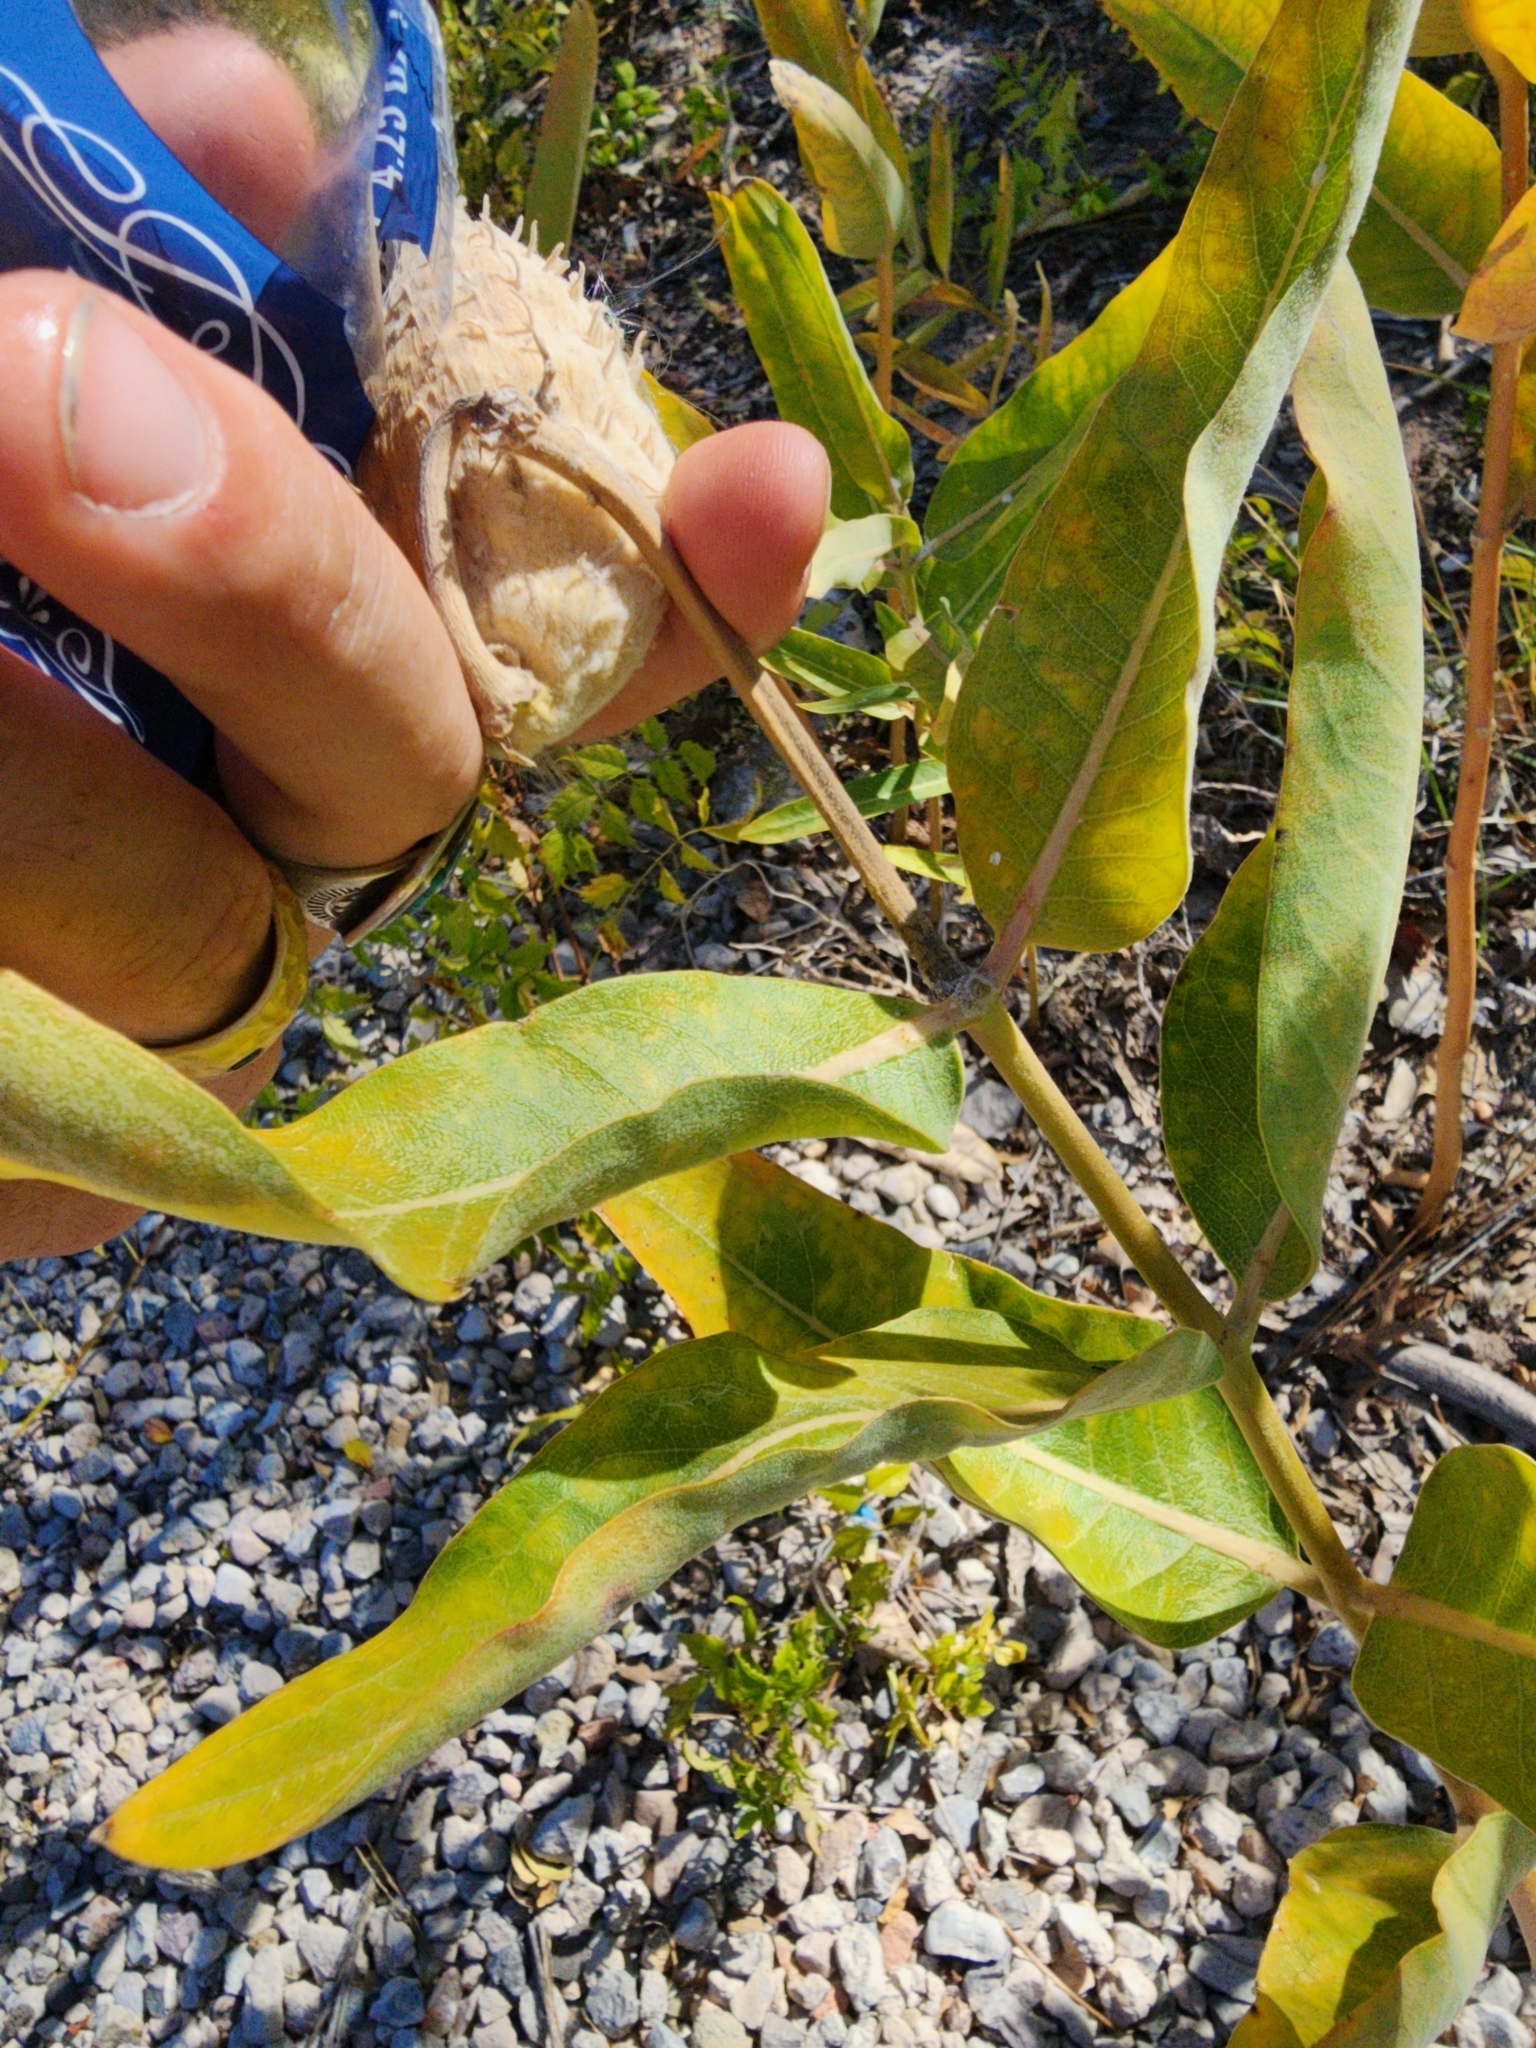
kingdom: Plantae
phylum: Tracheophyta
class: Magnoliopsida
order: Gentianales
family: Apocynaceae
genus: Asclepias
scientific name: Asclepias speciosa
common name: Showy milkweed
